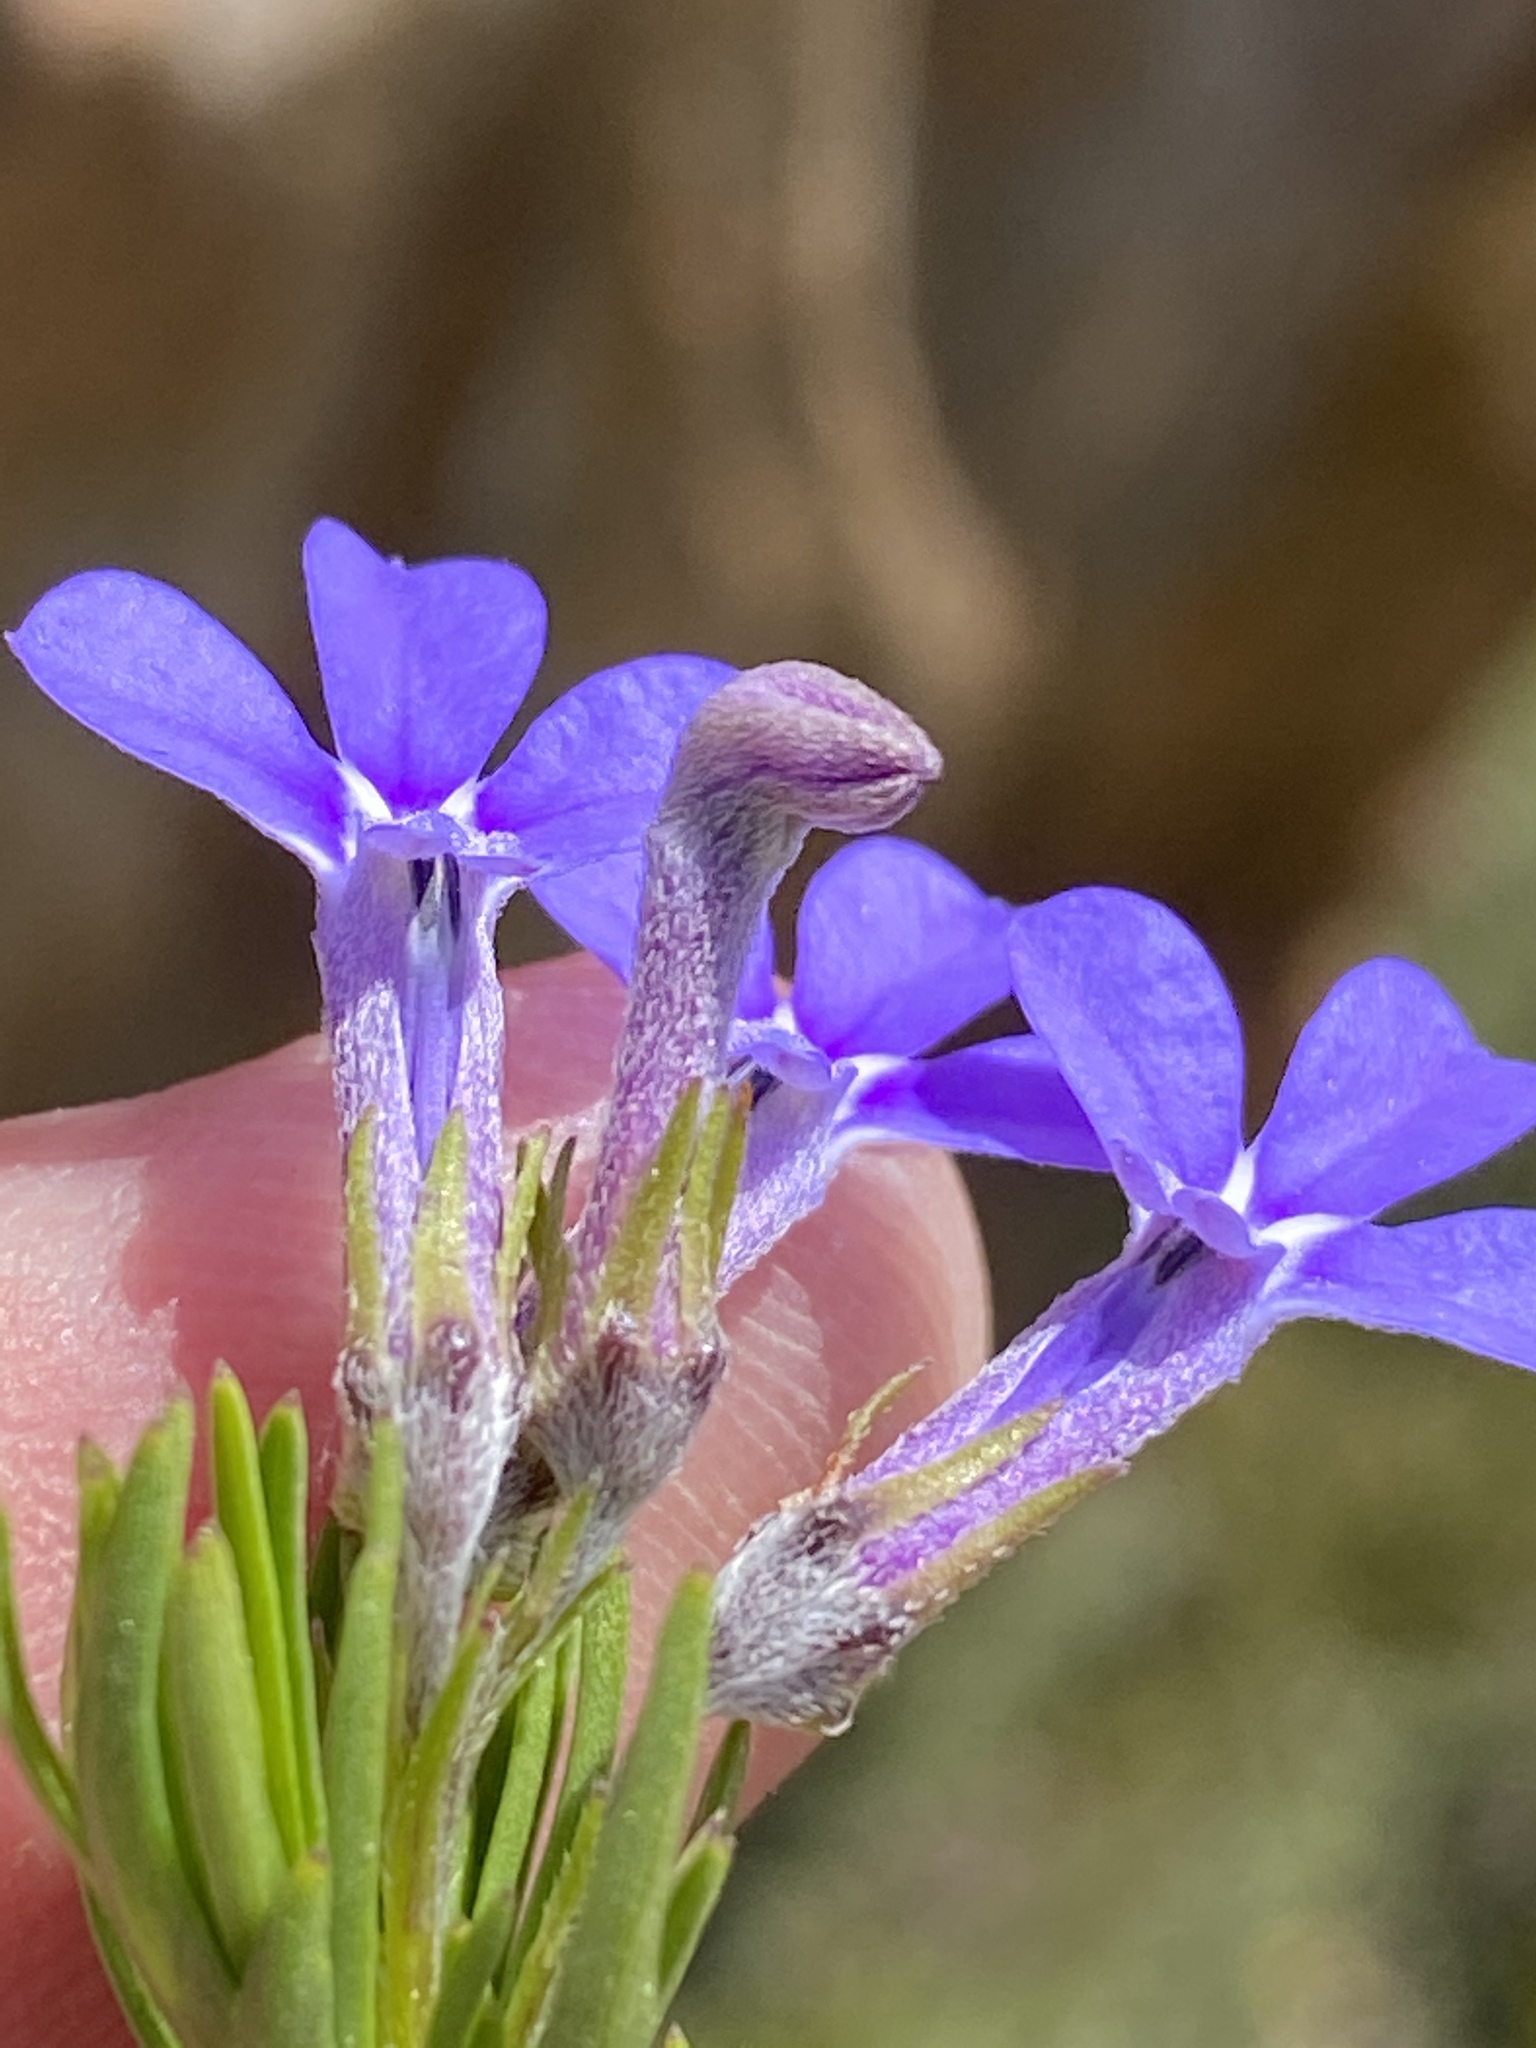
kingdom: Plantae
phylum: Tracheophyta
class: Magnoliopsida
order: Asterales
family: Campanulaceae
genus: Lobelia
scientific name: Lobelia pinifolia
